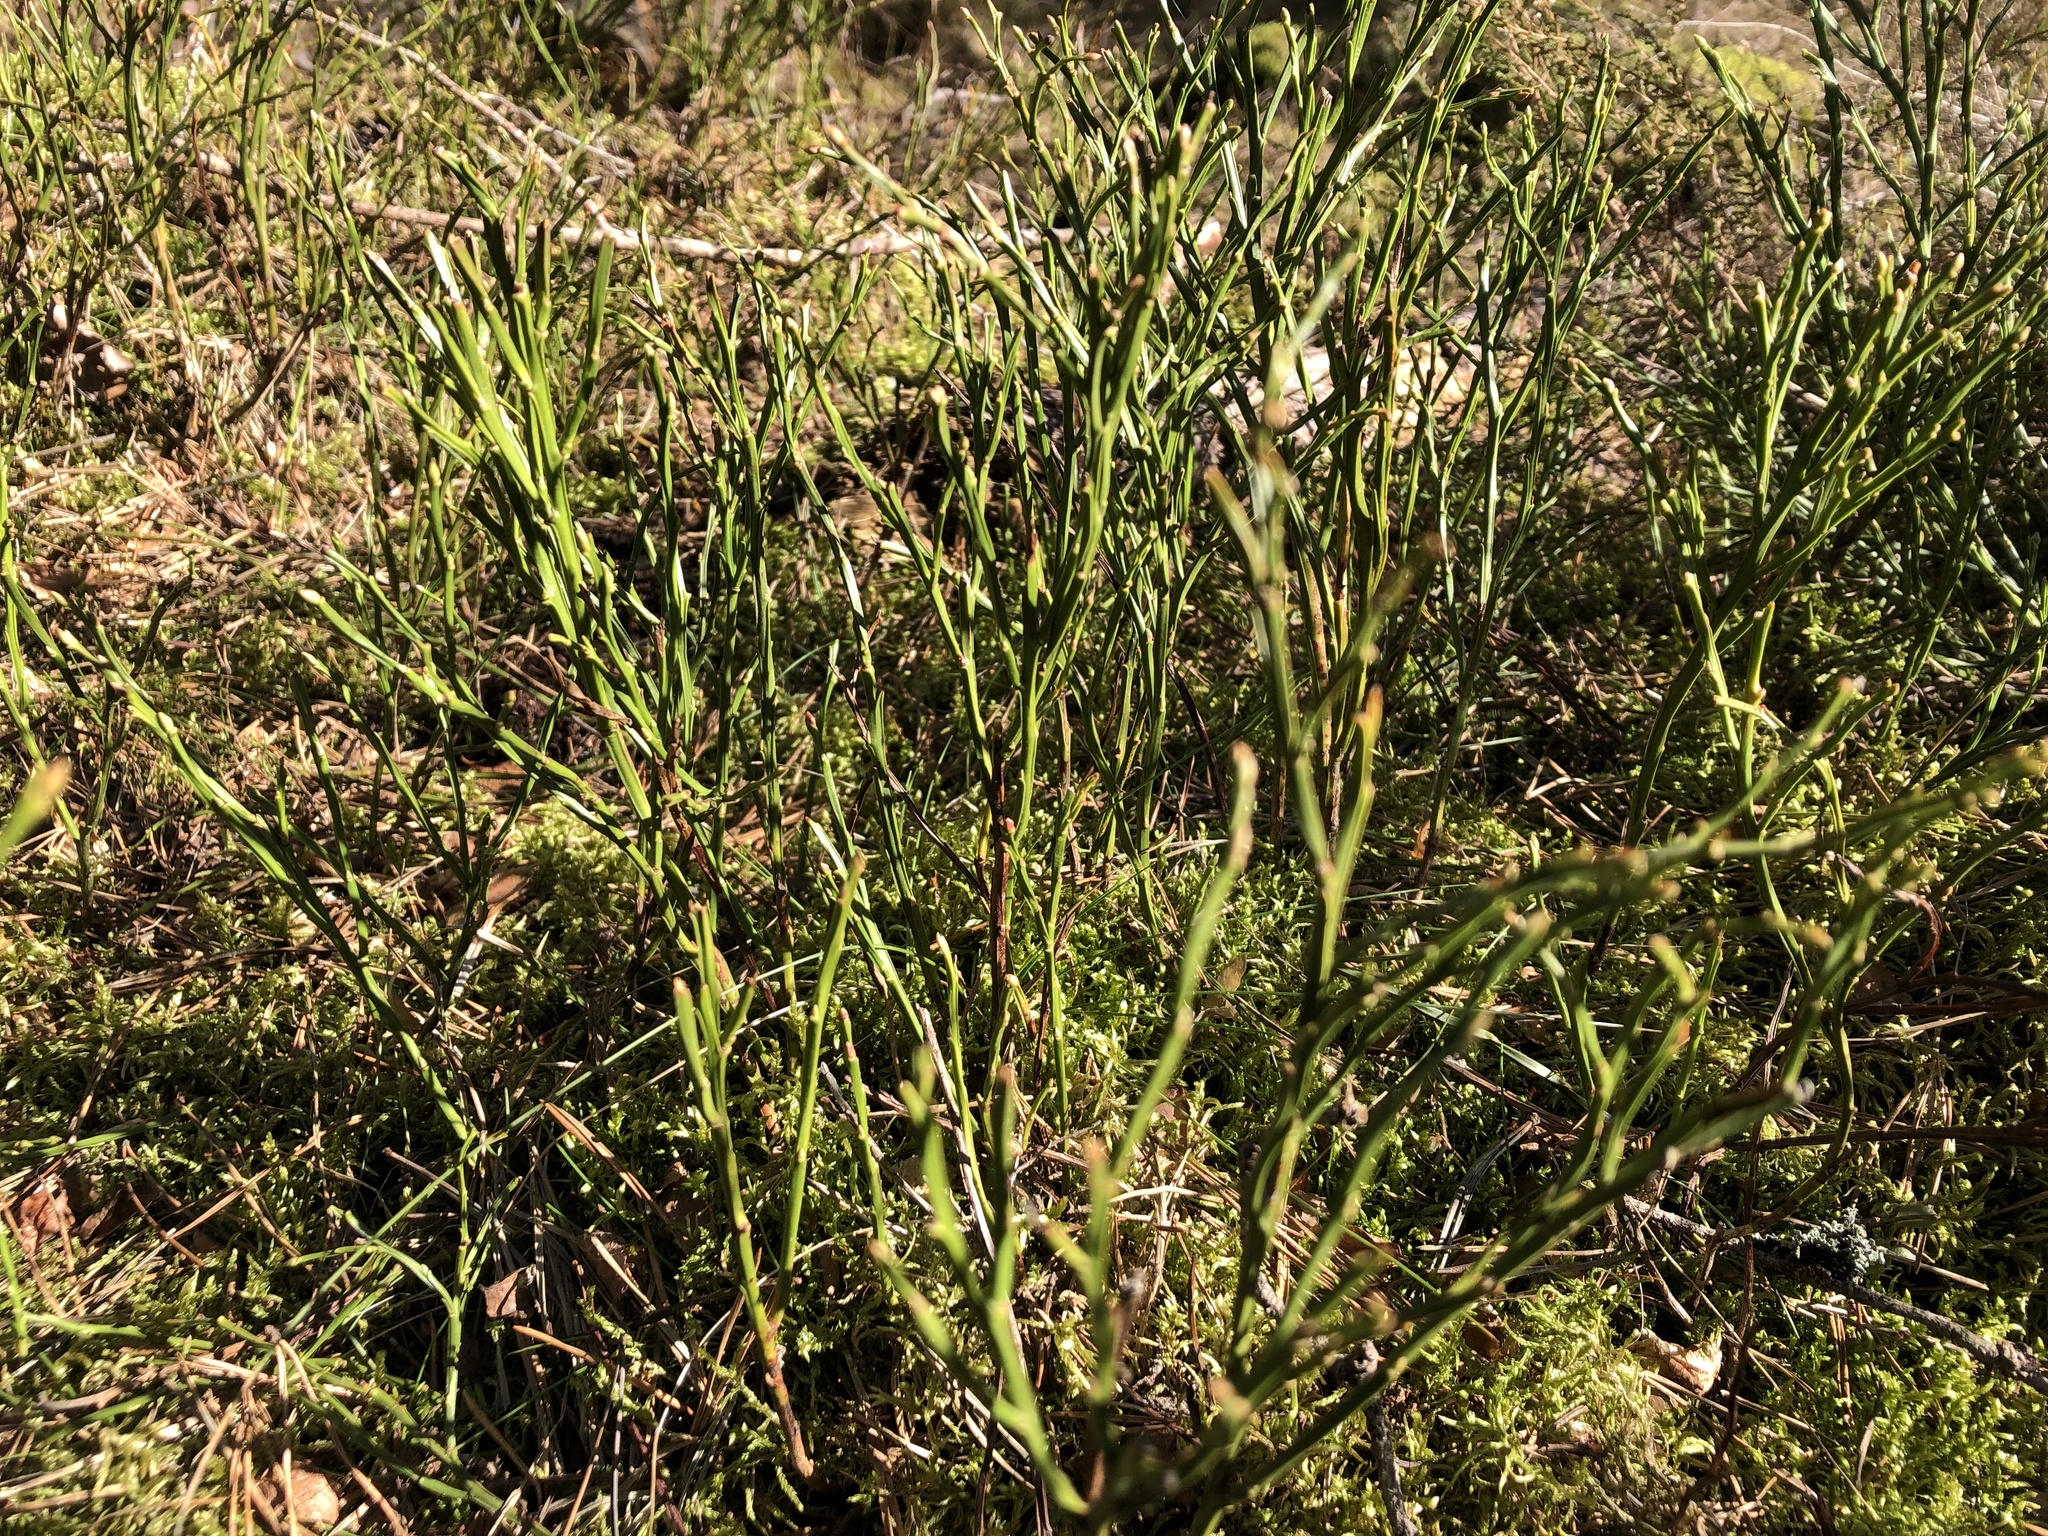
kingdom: Plantae
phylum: Tracheophyta
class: Magnoliopsida
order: Ericales
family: Ericaceae
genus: Vaccinium
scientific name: Vaccinium myrtillus
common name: Bilberry
